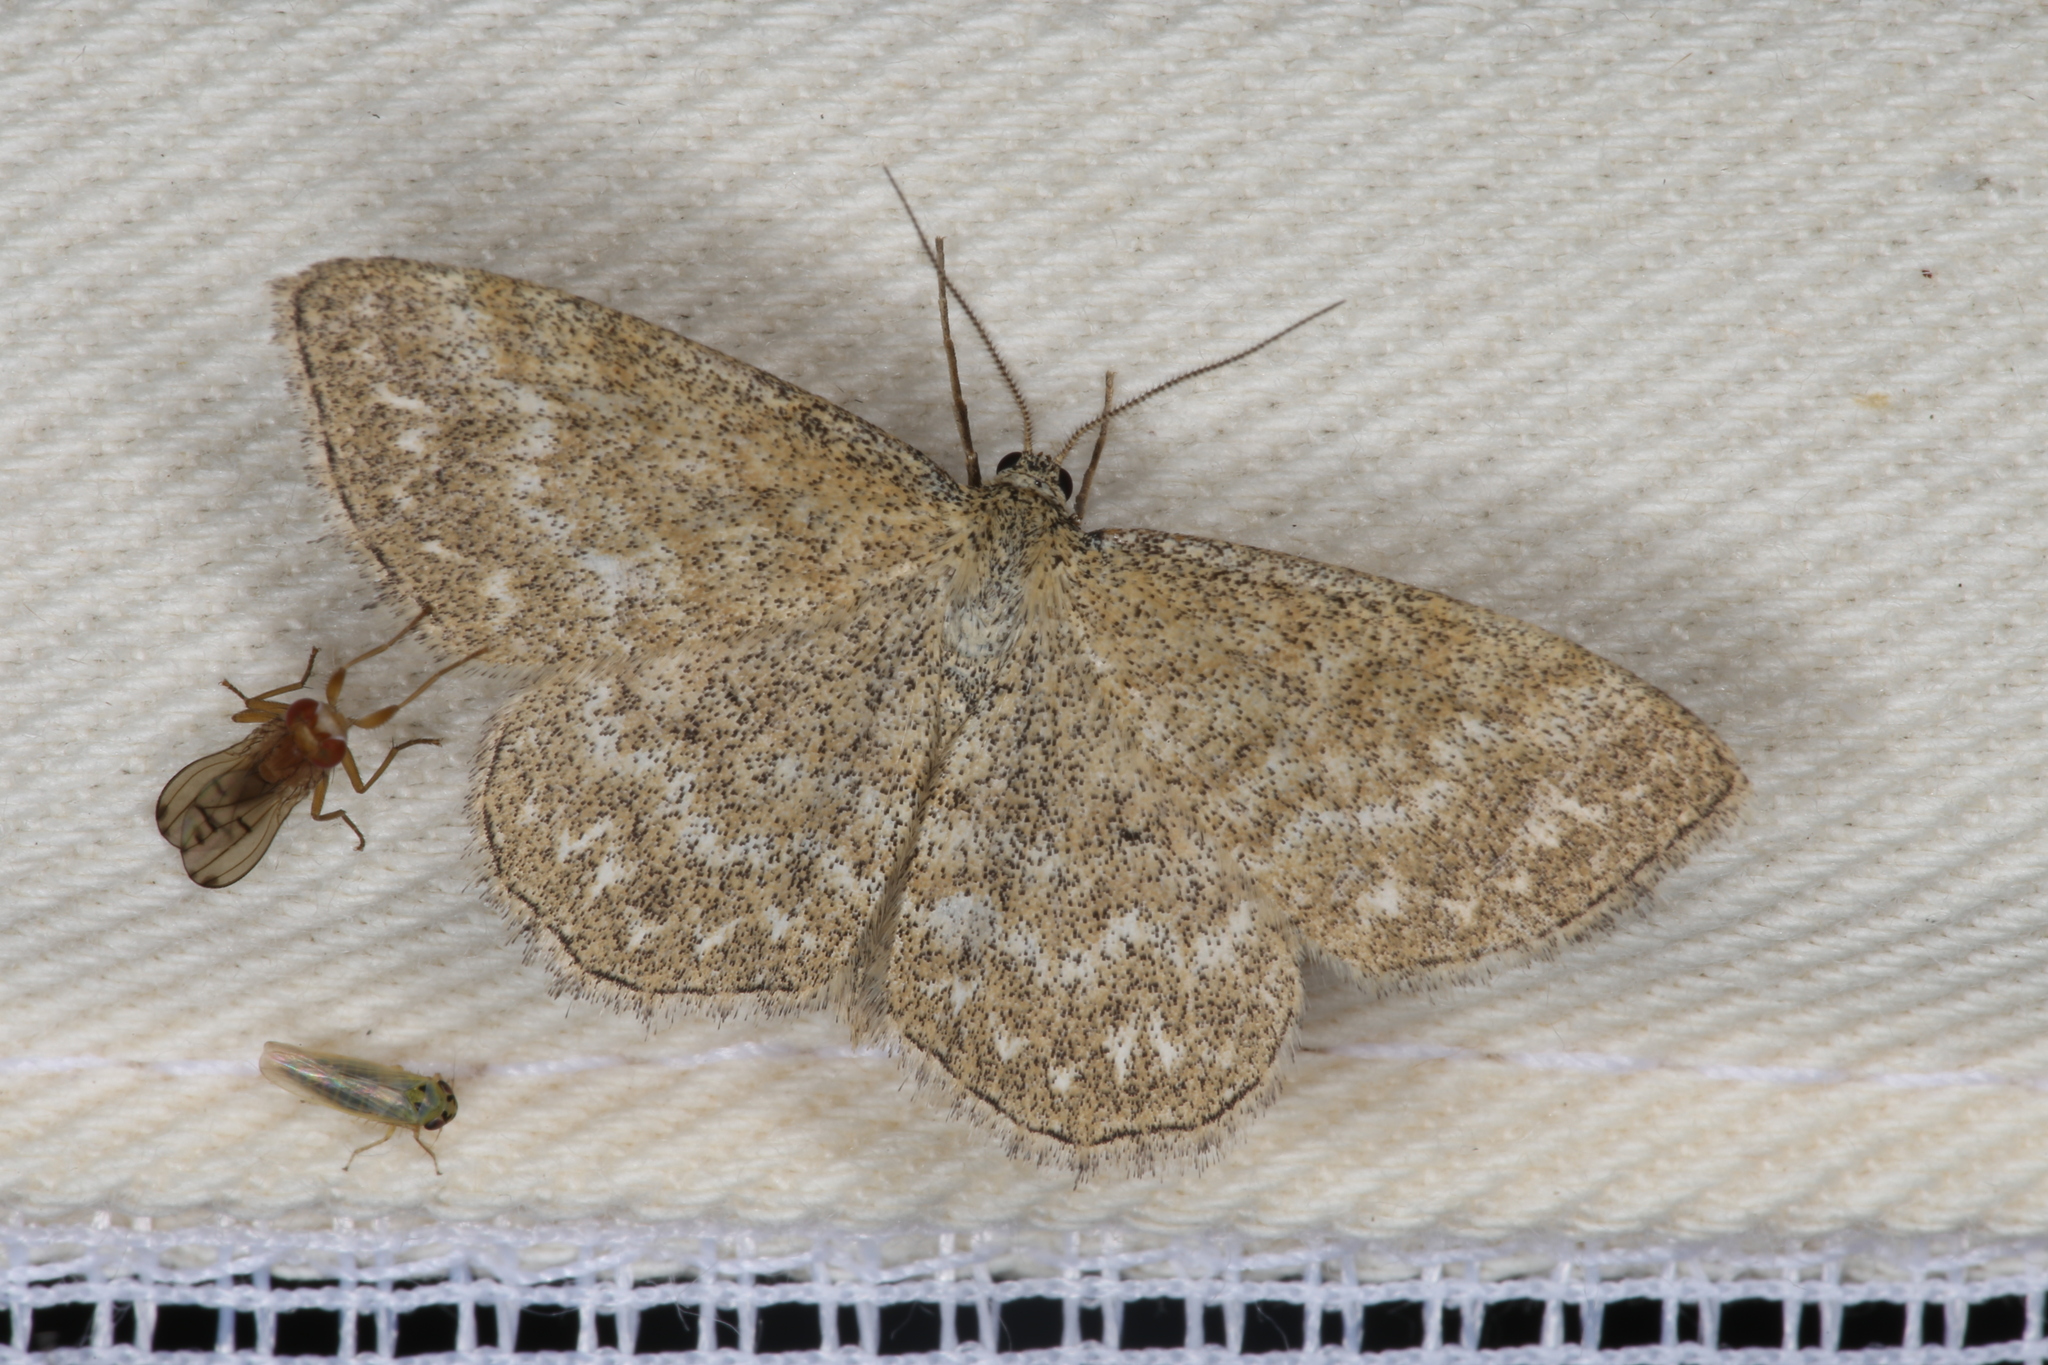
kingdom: Animalia
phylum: Arthropoda
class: Insecta
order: Lepidoptera
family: Geometridae
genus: Scopula
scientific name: Scopula immorata
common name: Lewes wave
